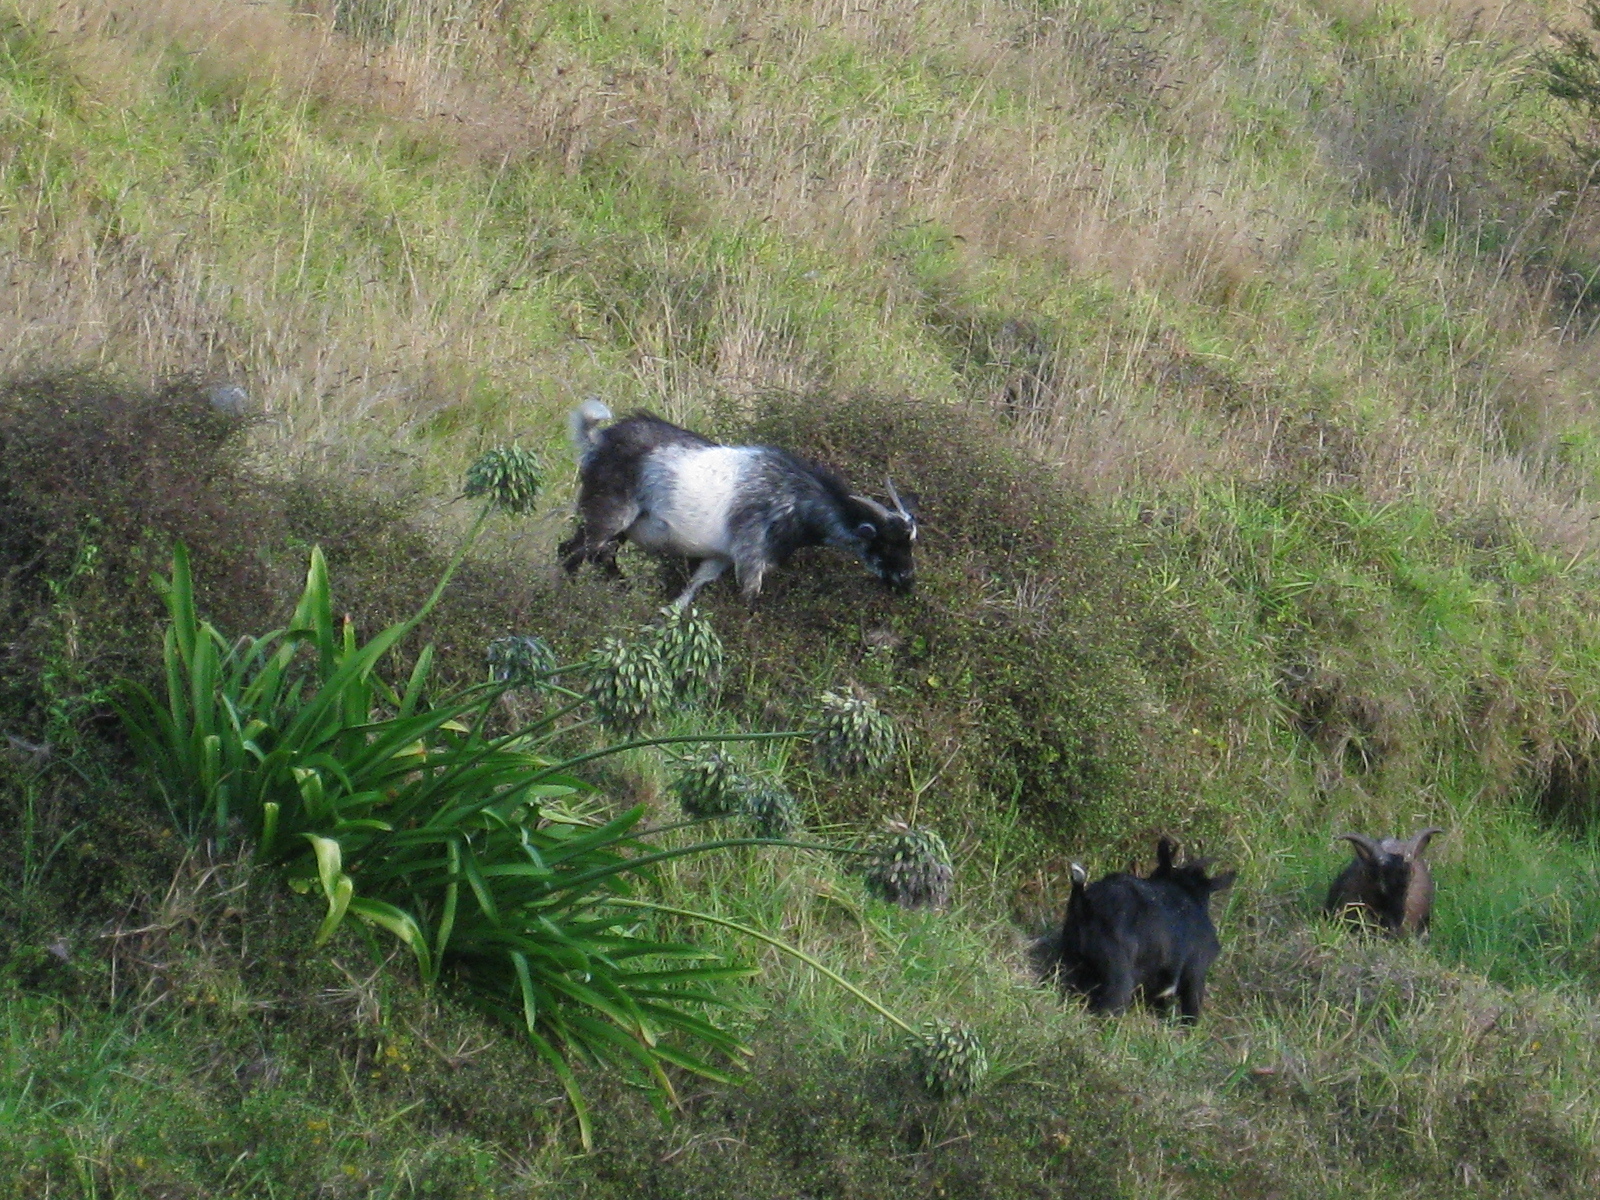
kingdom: Animalia
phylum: Chordata
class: Mammalia
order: Artiodactyla
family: Bovidae
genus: Capra
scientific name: Capra hircus
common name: Domestic goat
